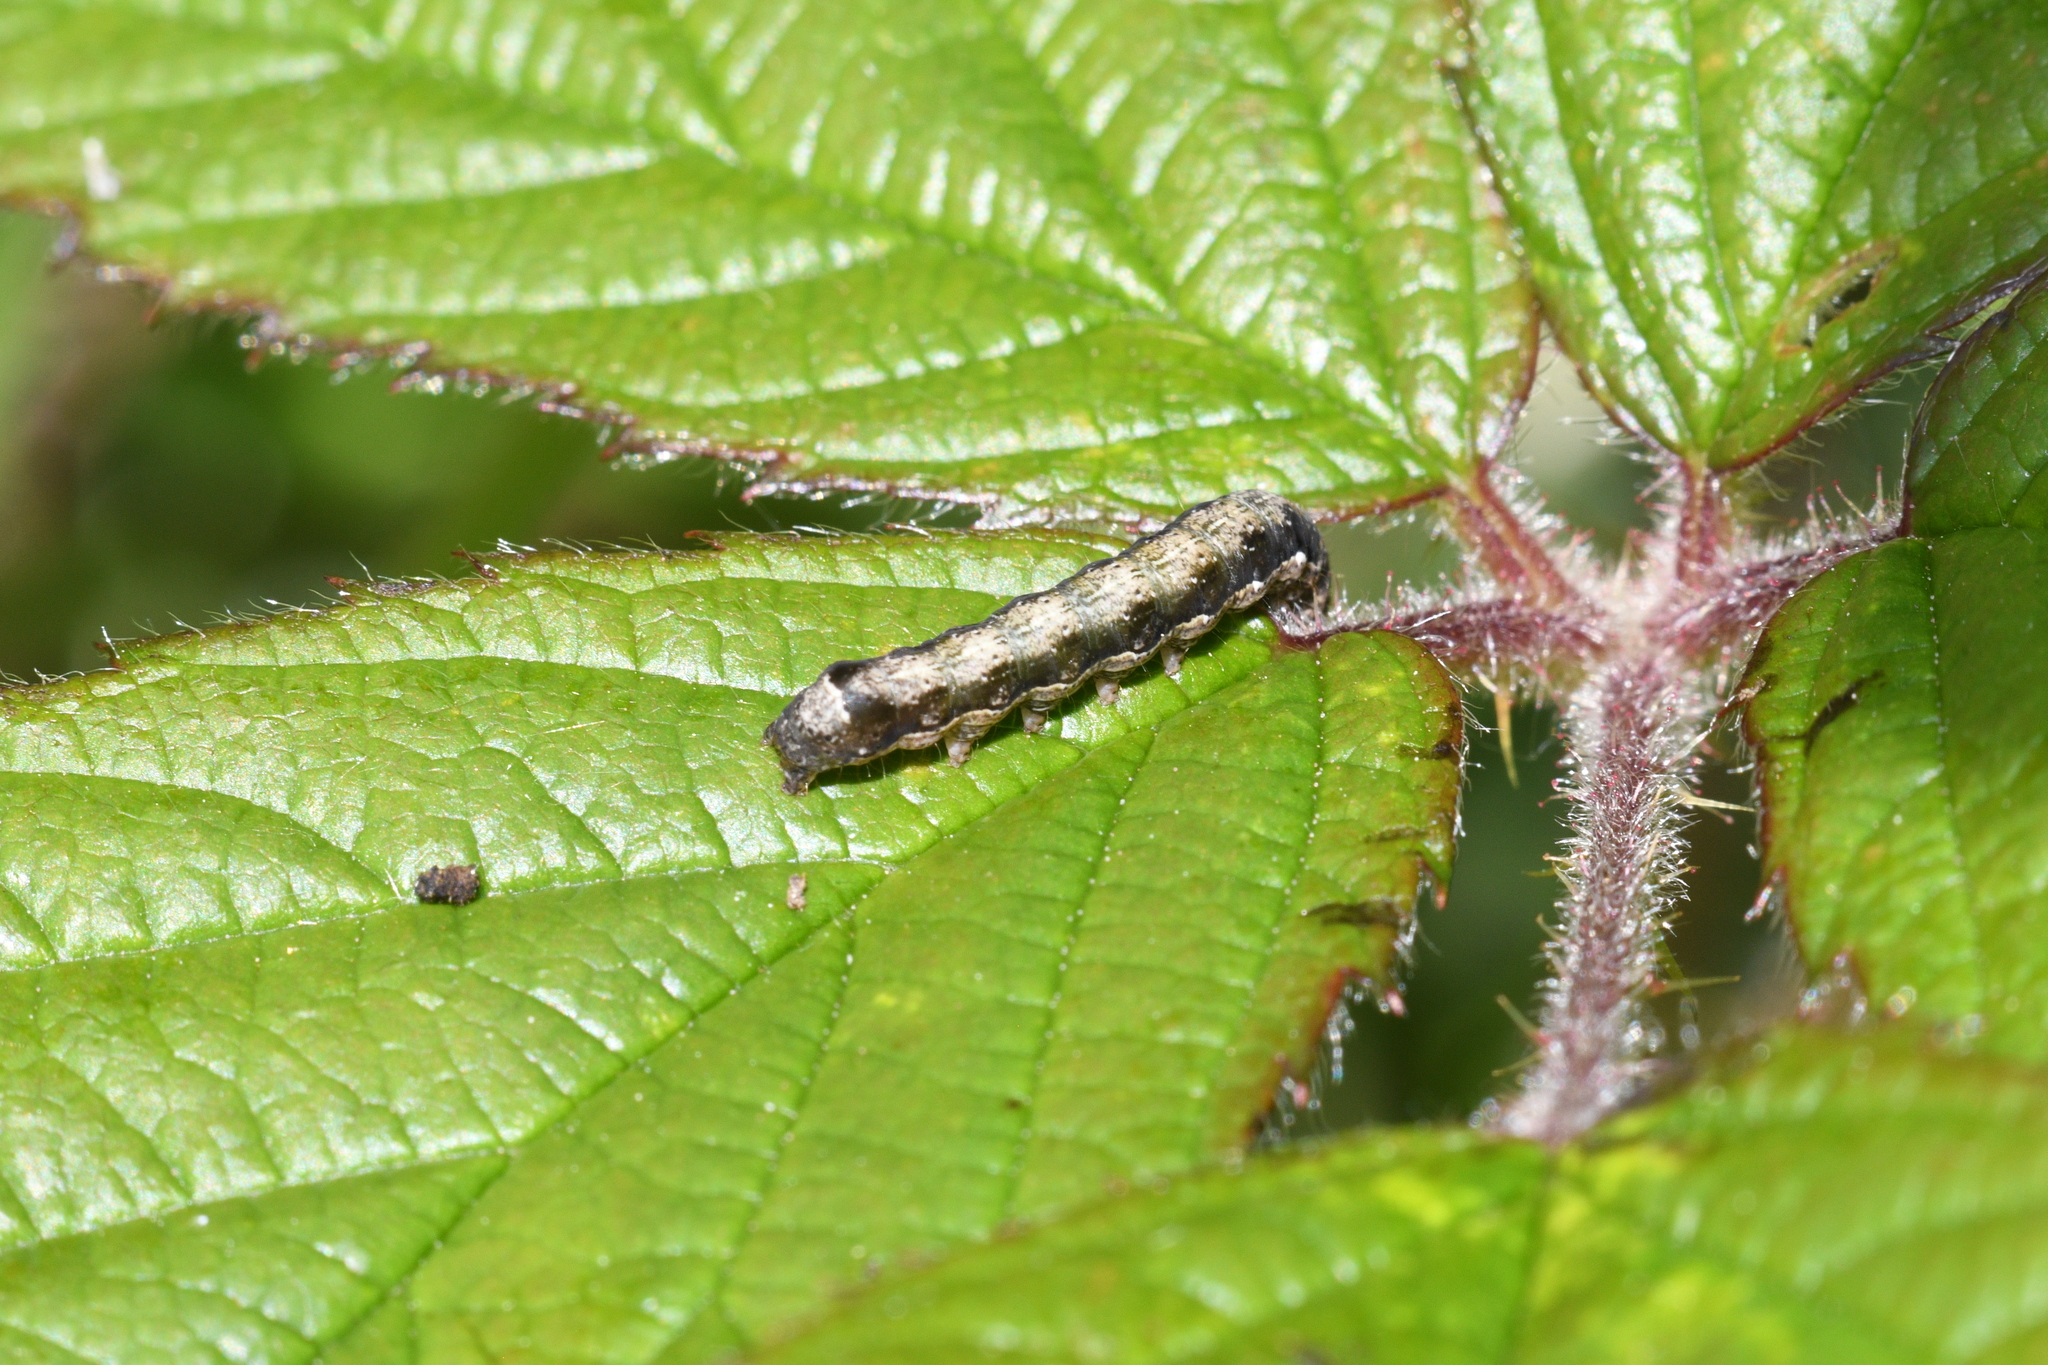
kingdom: Animalia
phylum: Arthropoda
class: Insecta
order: Lepidoptera
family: Noctuidae
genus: Anorthoa
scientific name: Anorthoa munda
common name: Twin-spotted quaker
